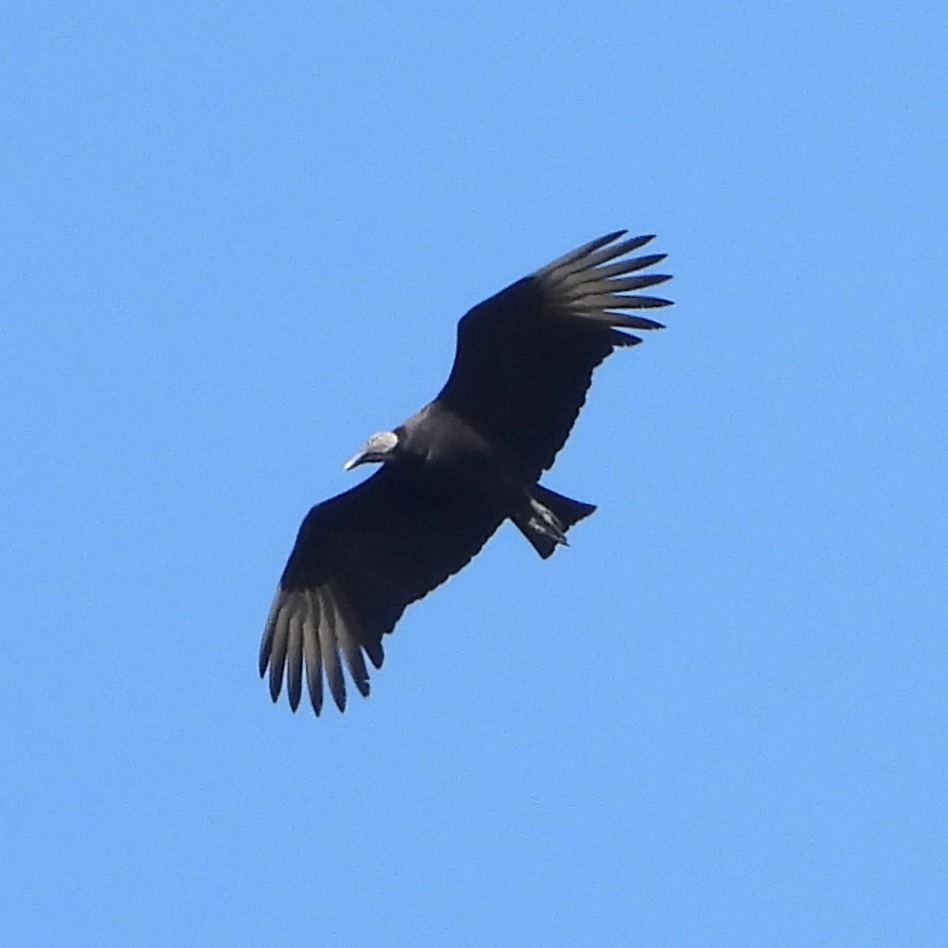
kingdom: Animalia
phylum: Chordata
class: Aves
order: Accipitriformes
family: Cathartidae
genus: Coragyps
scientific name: Coragyps atratus
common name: Black vulture
